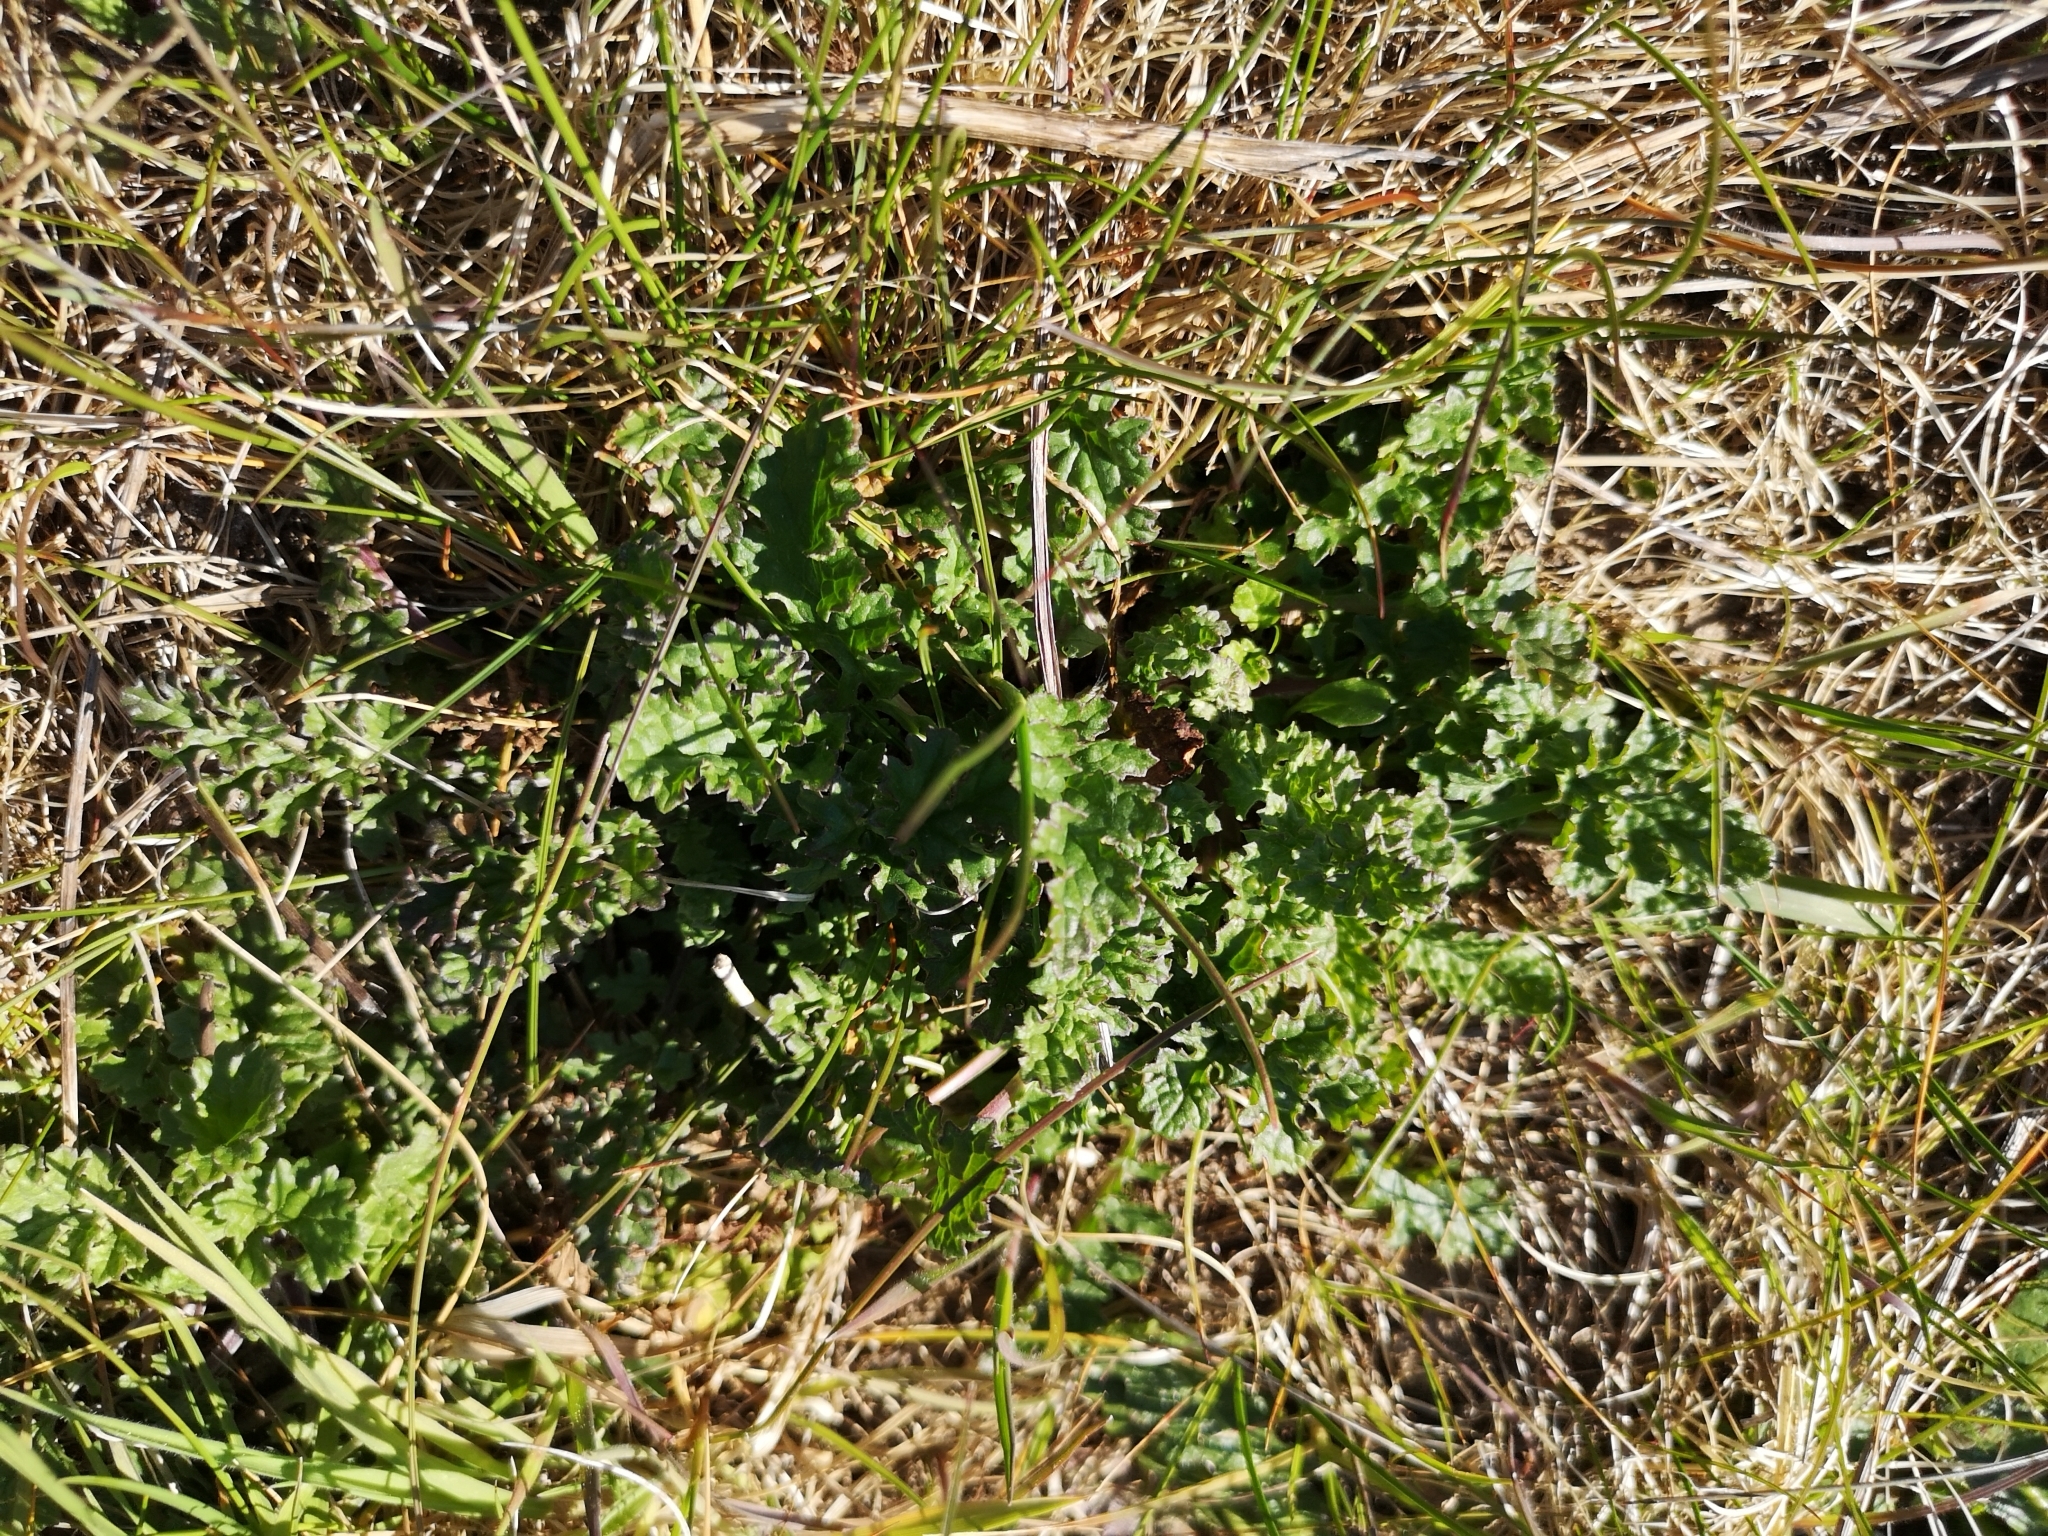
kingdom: Plantae
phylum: Tracheophyta
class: Magnoliopsida
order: Asterales
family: Asteraceae
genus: Jacobaea
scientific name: Jacobaea vulgaris
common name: Stinking willie
